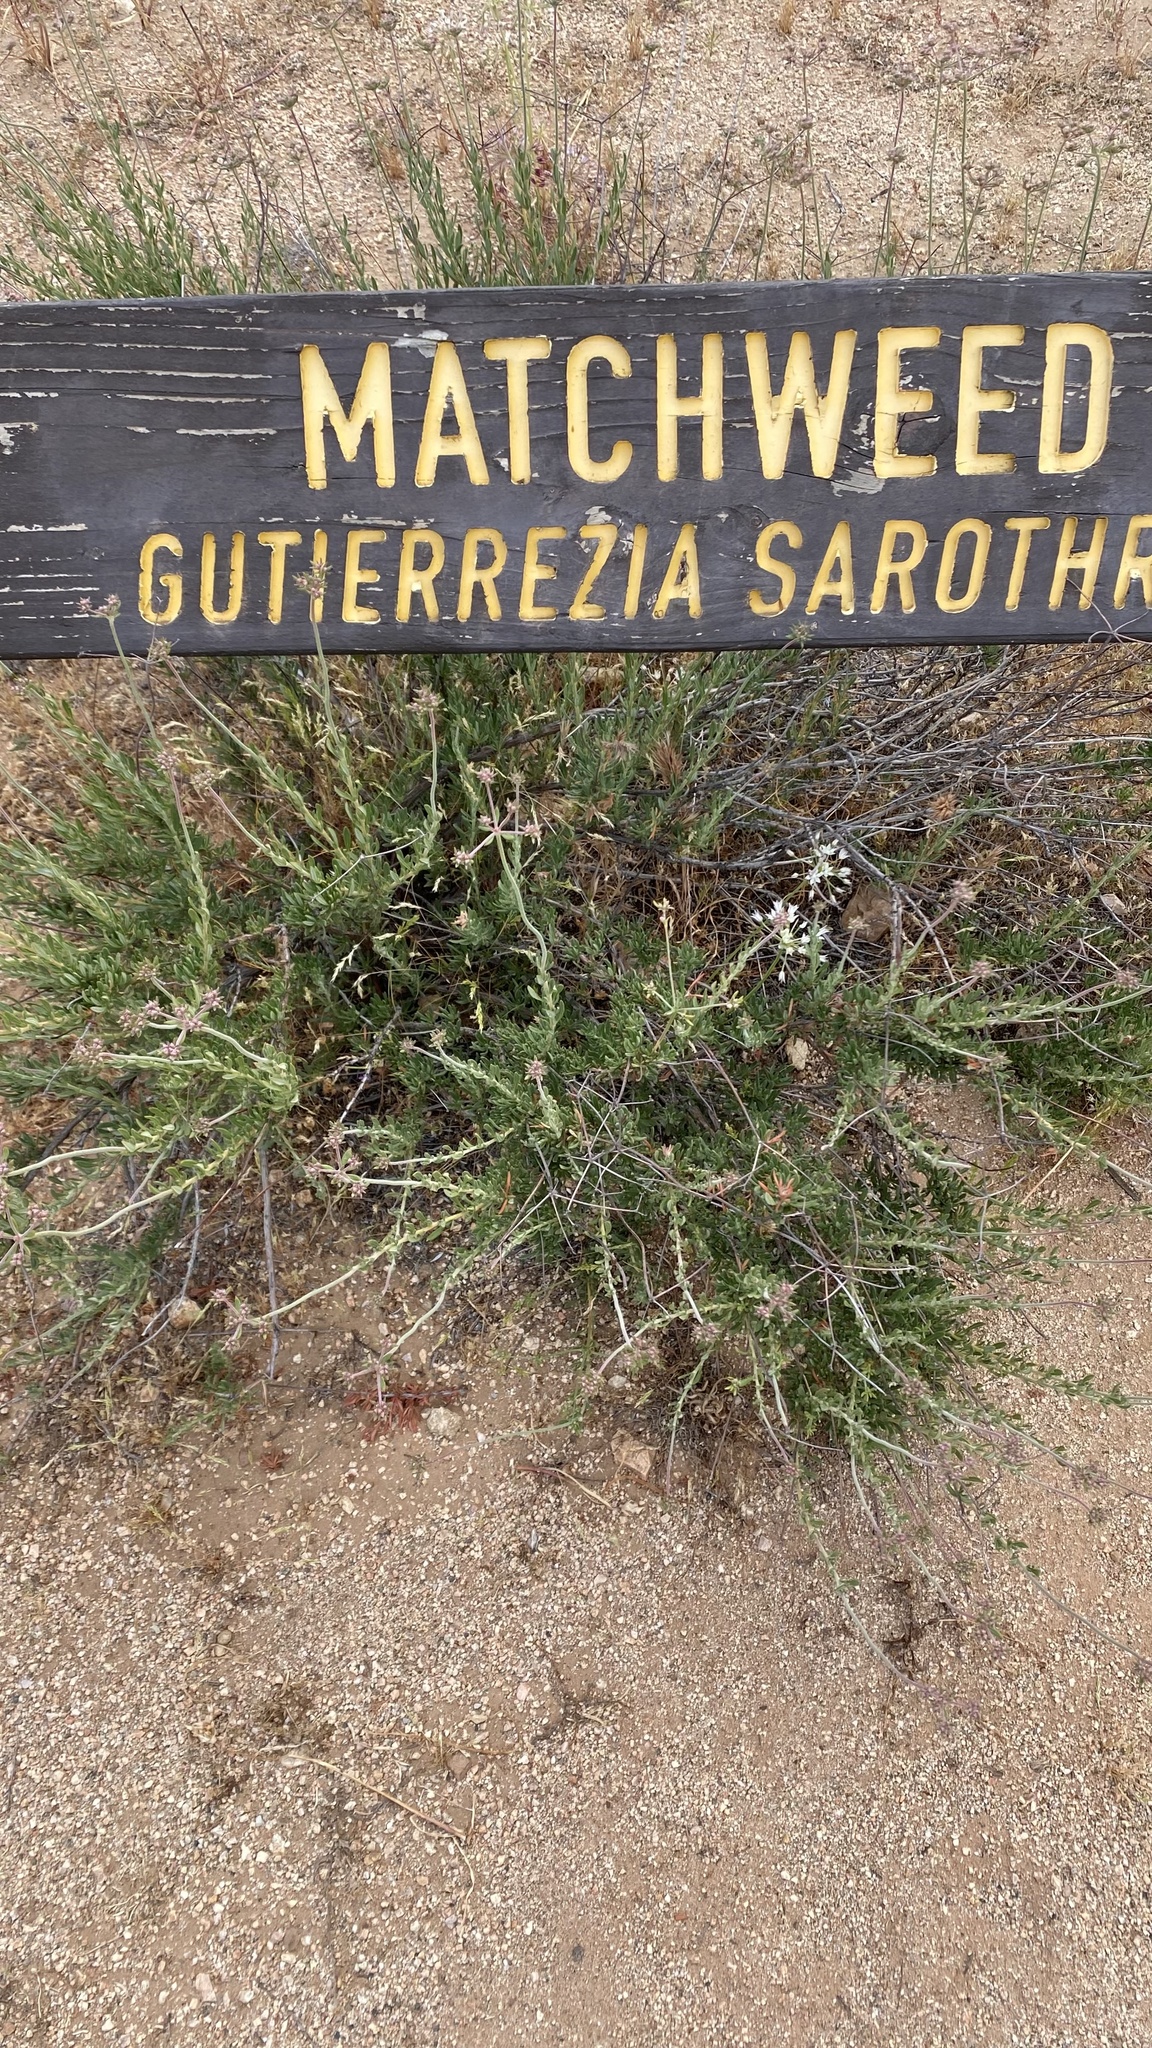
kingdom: Plantae
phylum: Tracheophyta
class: Magnoliopsida
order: Caryophyllales
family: Polygonaceae
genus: Eriogonum
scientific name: Eriogonum fasciculatum
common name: California wild buckwheat
